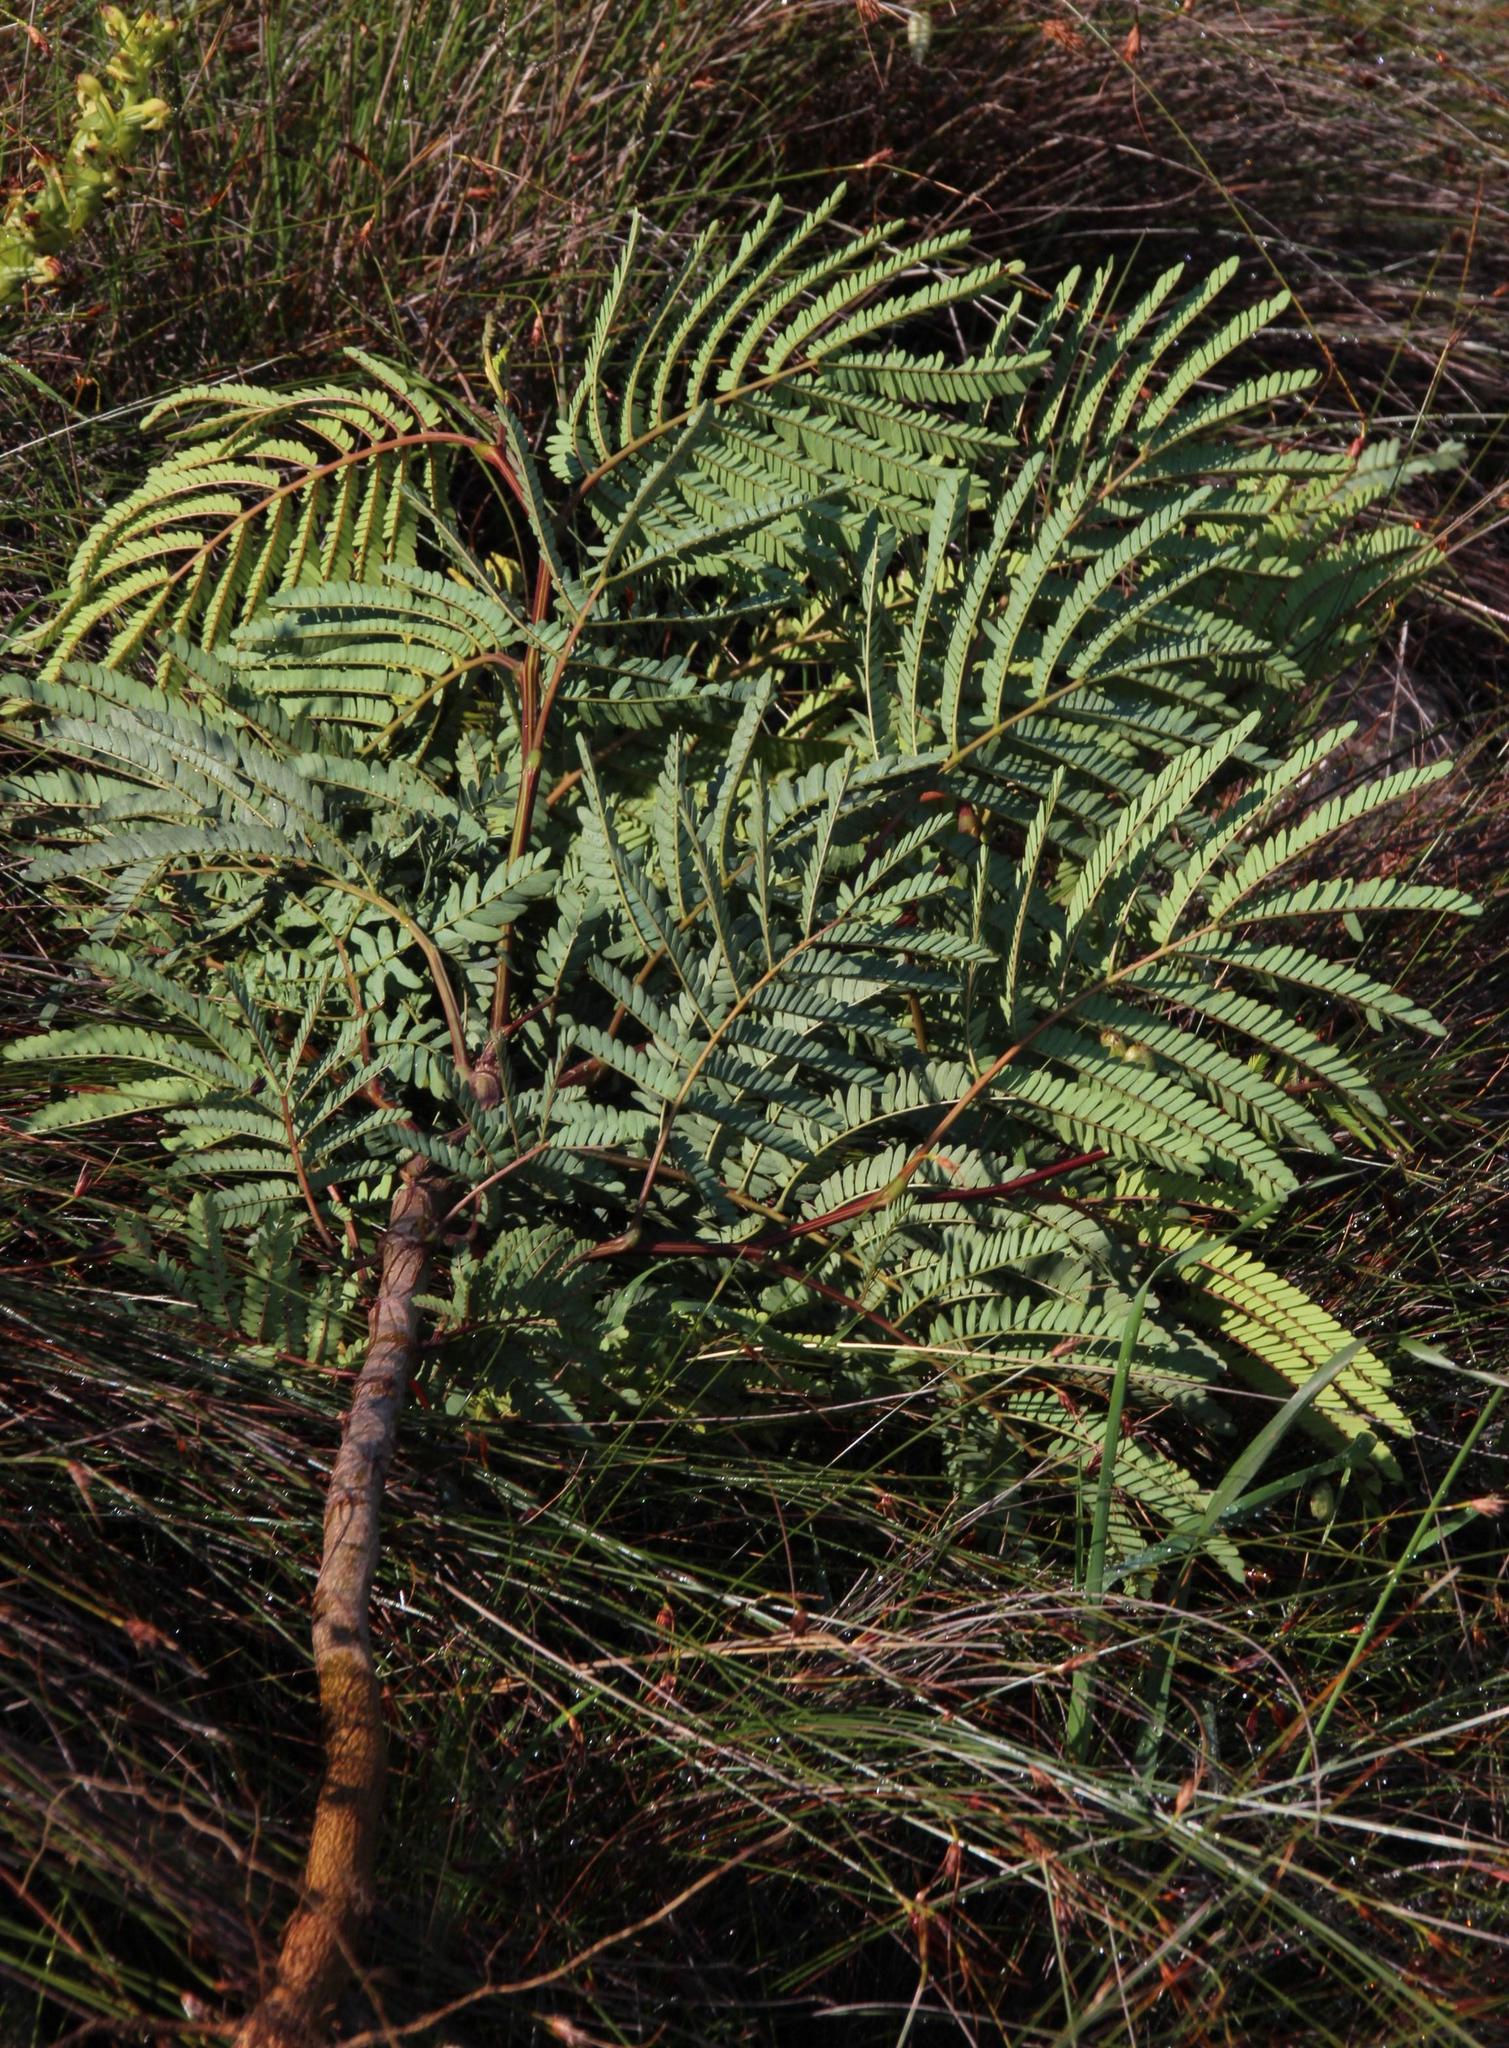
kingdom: Plantae
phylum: Tracheophyta
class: Magnoliopsida
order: Fabales
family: Fabaceae
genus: Paraserianthes
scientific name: Paraserianthes lophantha
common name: Plume albizia
